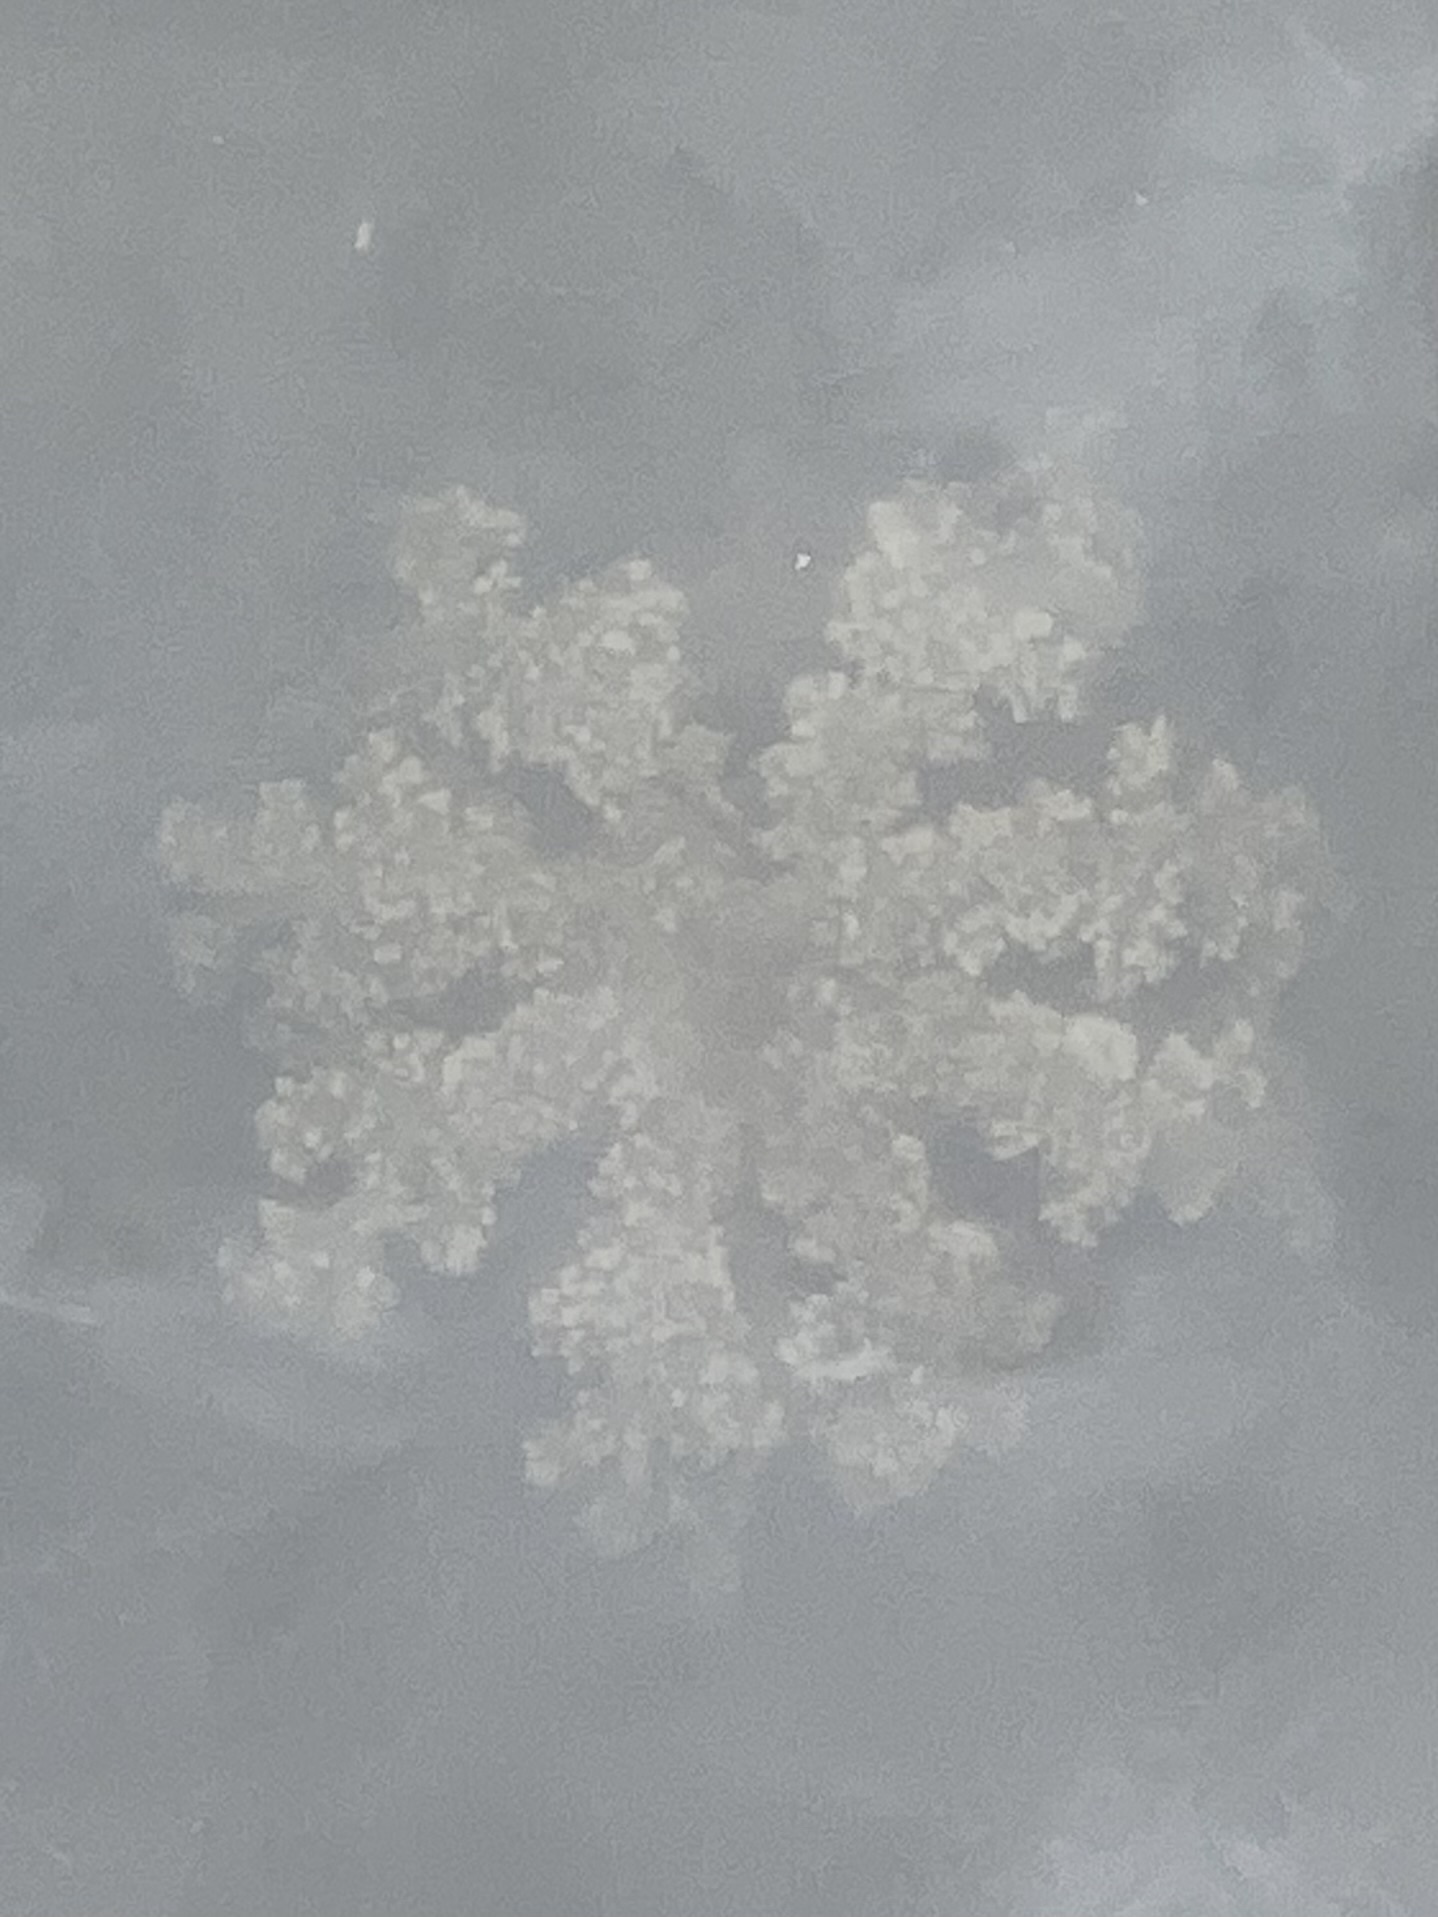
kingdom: Animalia
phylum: Cnidaria
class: Scyphozoa
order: Rhizostomeae
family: Cassiopeidae
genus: Cassiopea
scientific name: Cassiopea andromeda
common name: Upside-down jellyfish
